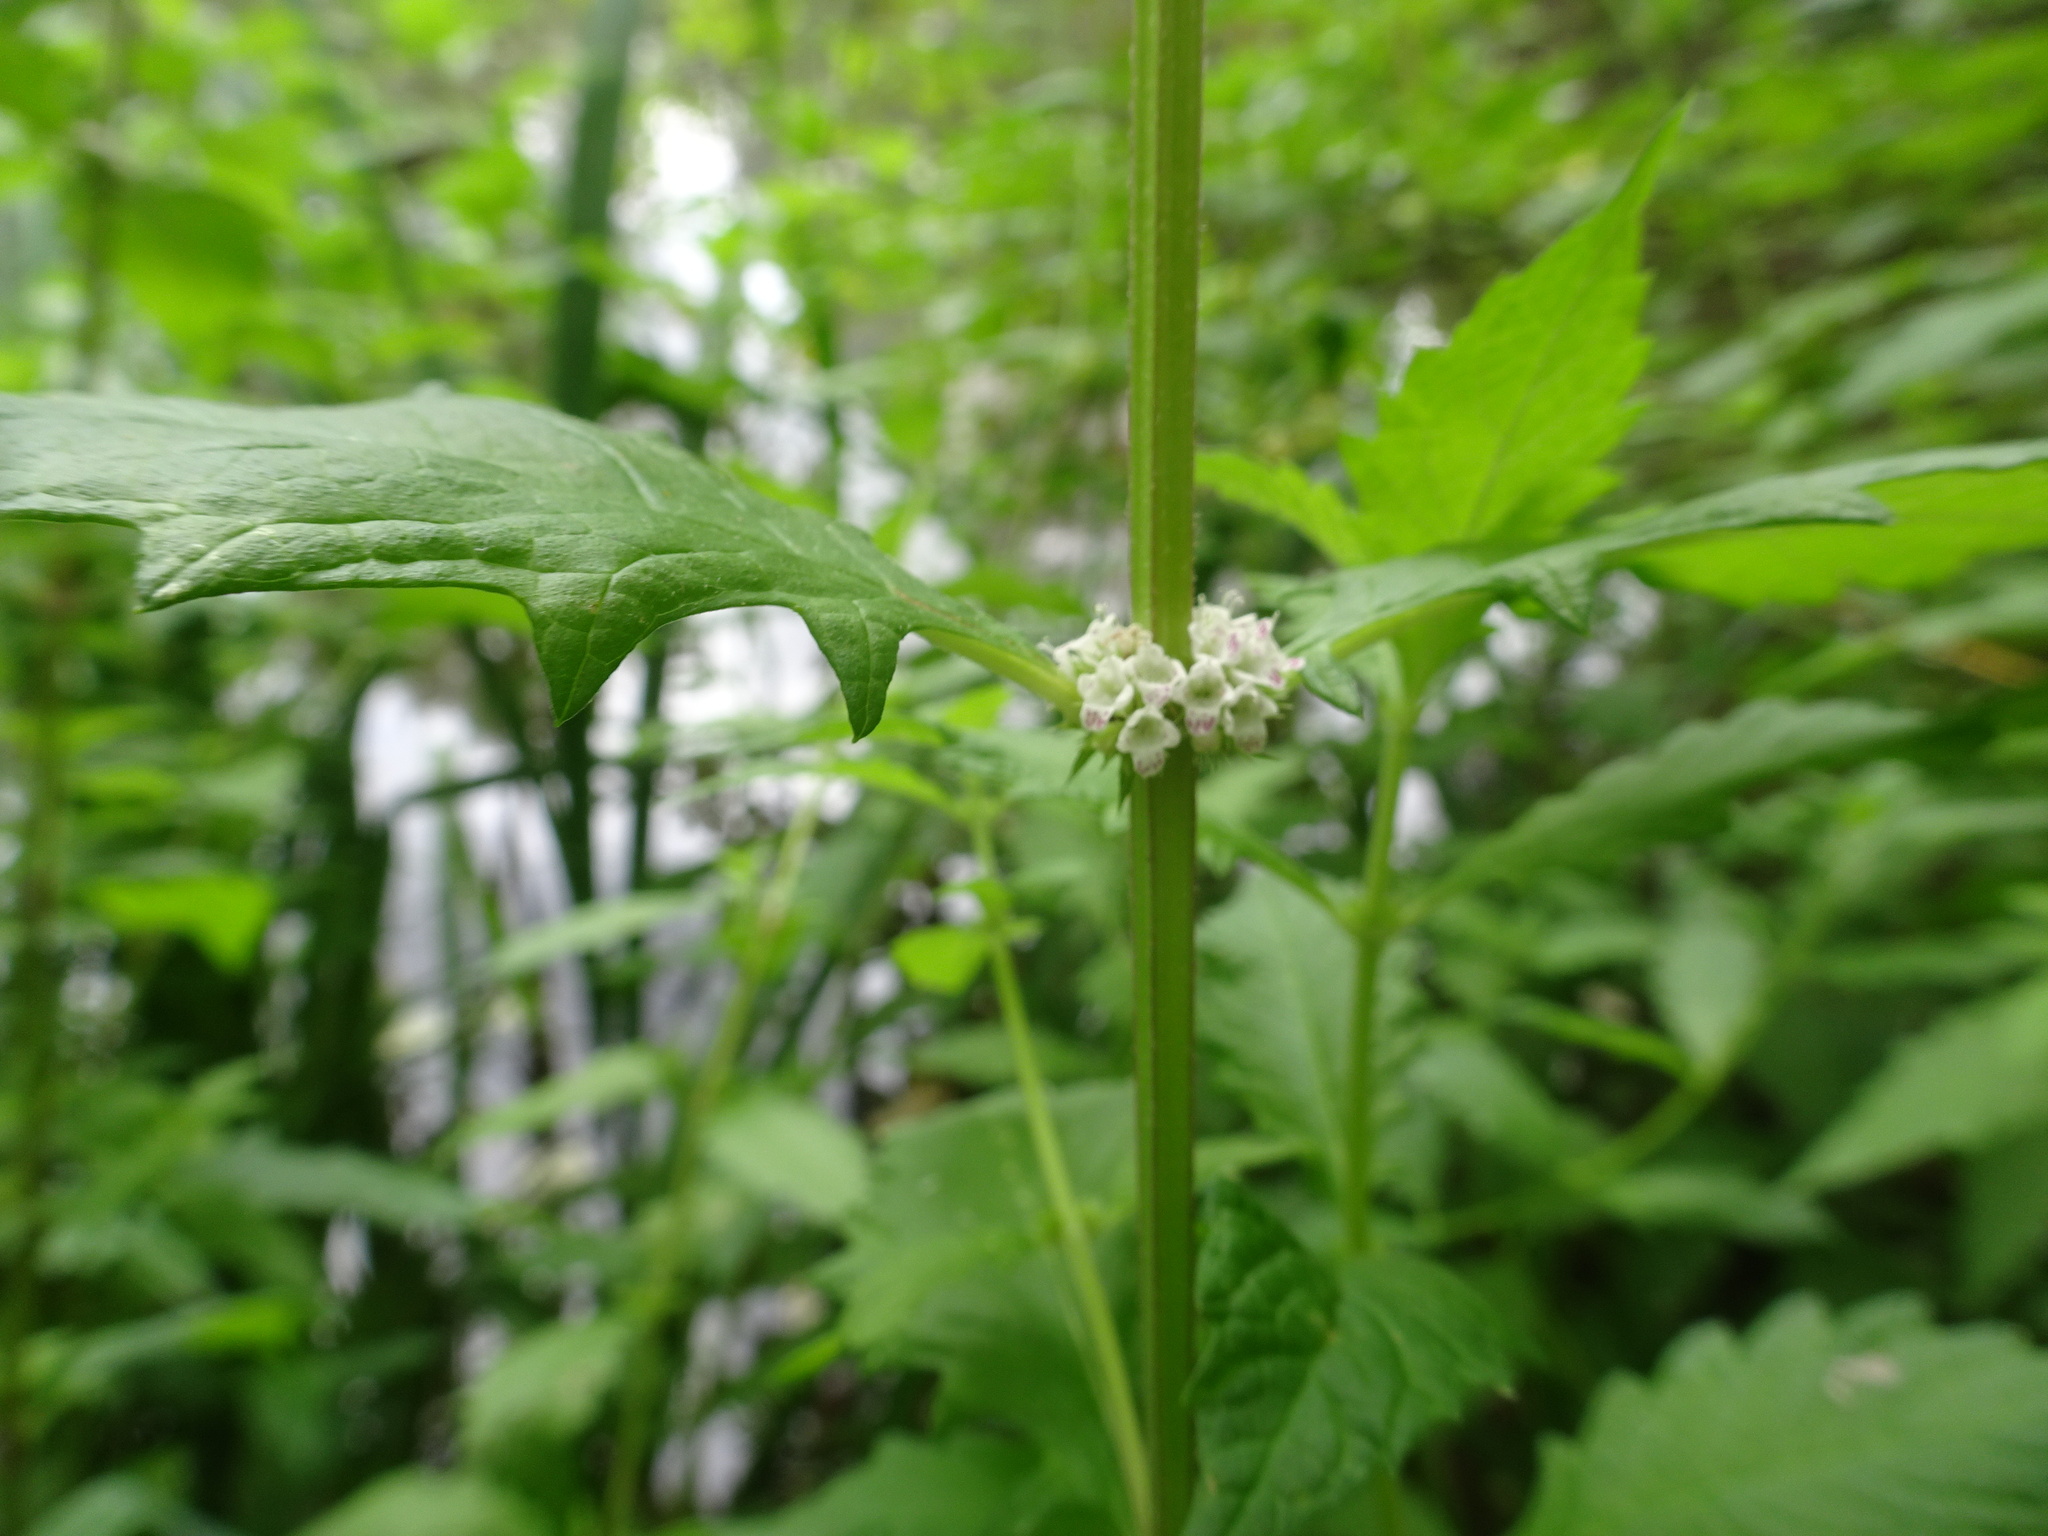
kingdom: Plantae
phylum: Tracheophyta
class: Magnoliopsida
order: Lamiales
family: Lamiaceae
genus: Lycopus
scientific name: Lycopus europaeus
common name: European bugleweed
